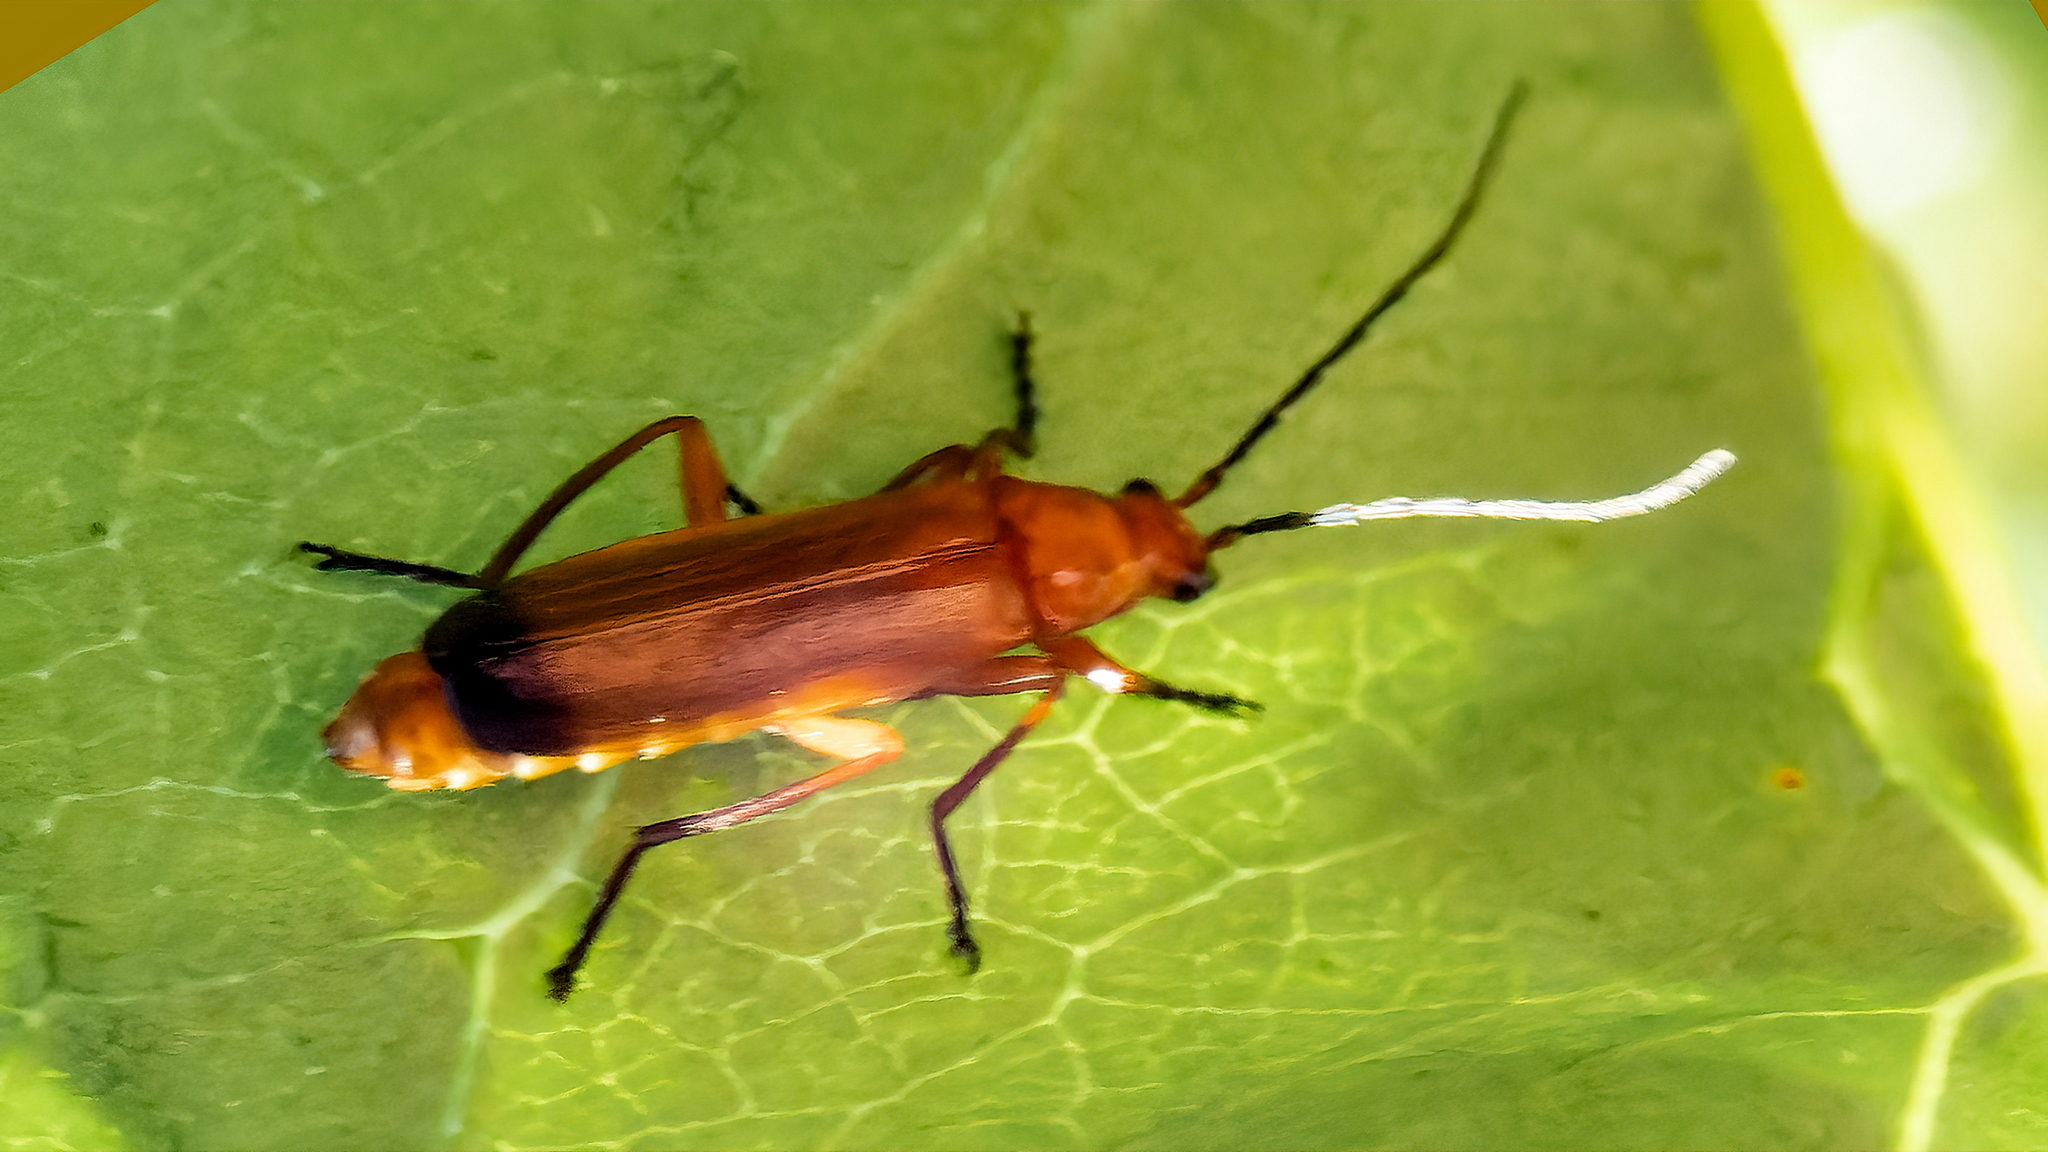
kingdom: Animalia
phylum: Arthropoda
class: Insecta
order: Coleoptera
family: Cantharidae
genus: Rhagonycha
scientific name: Rhagonycha fulva
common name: Common red soldier beetle
